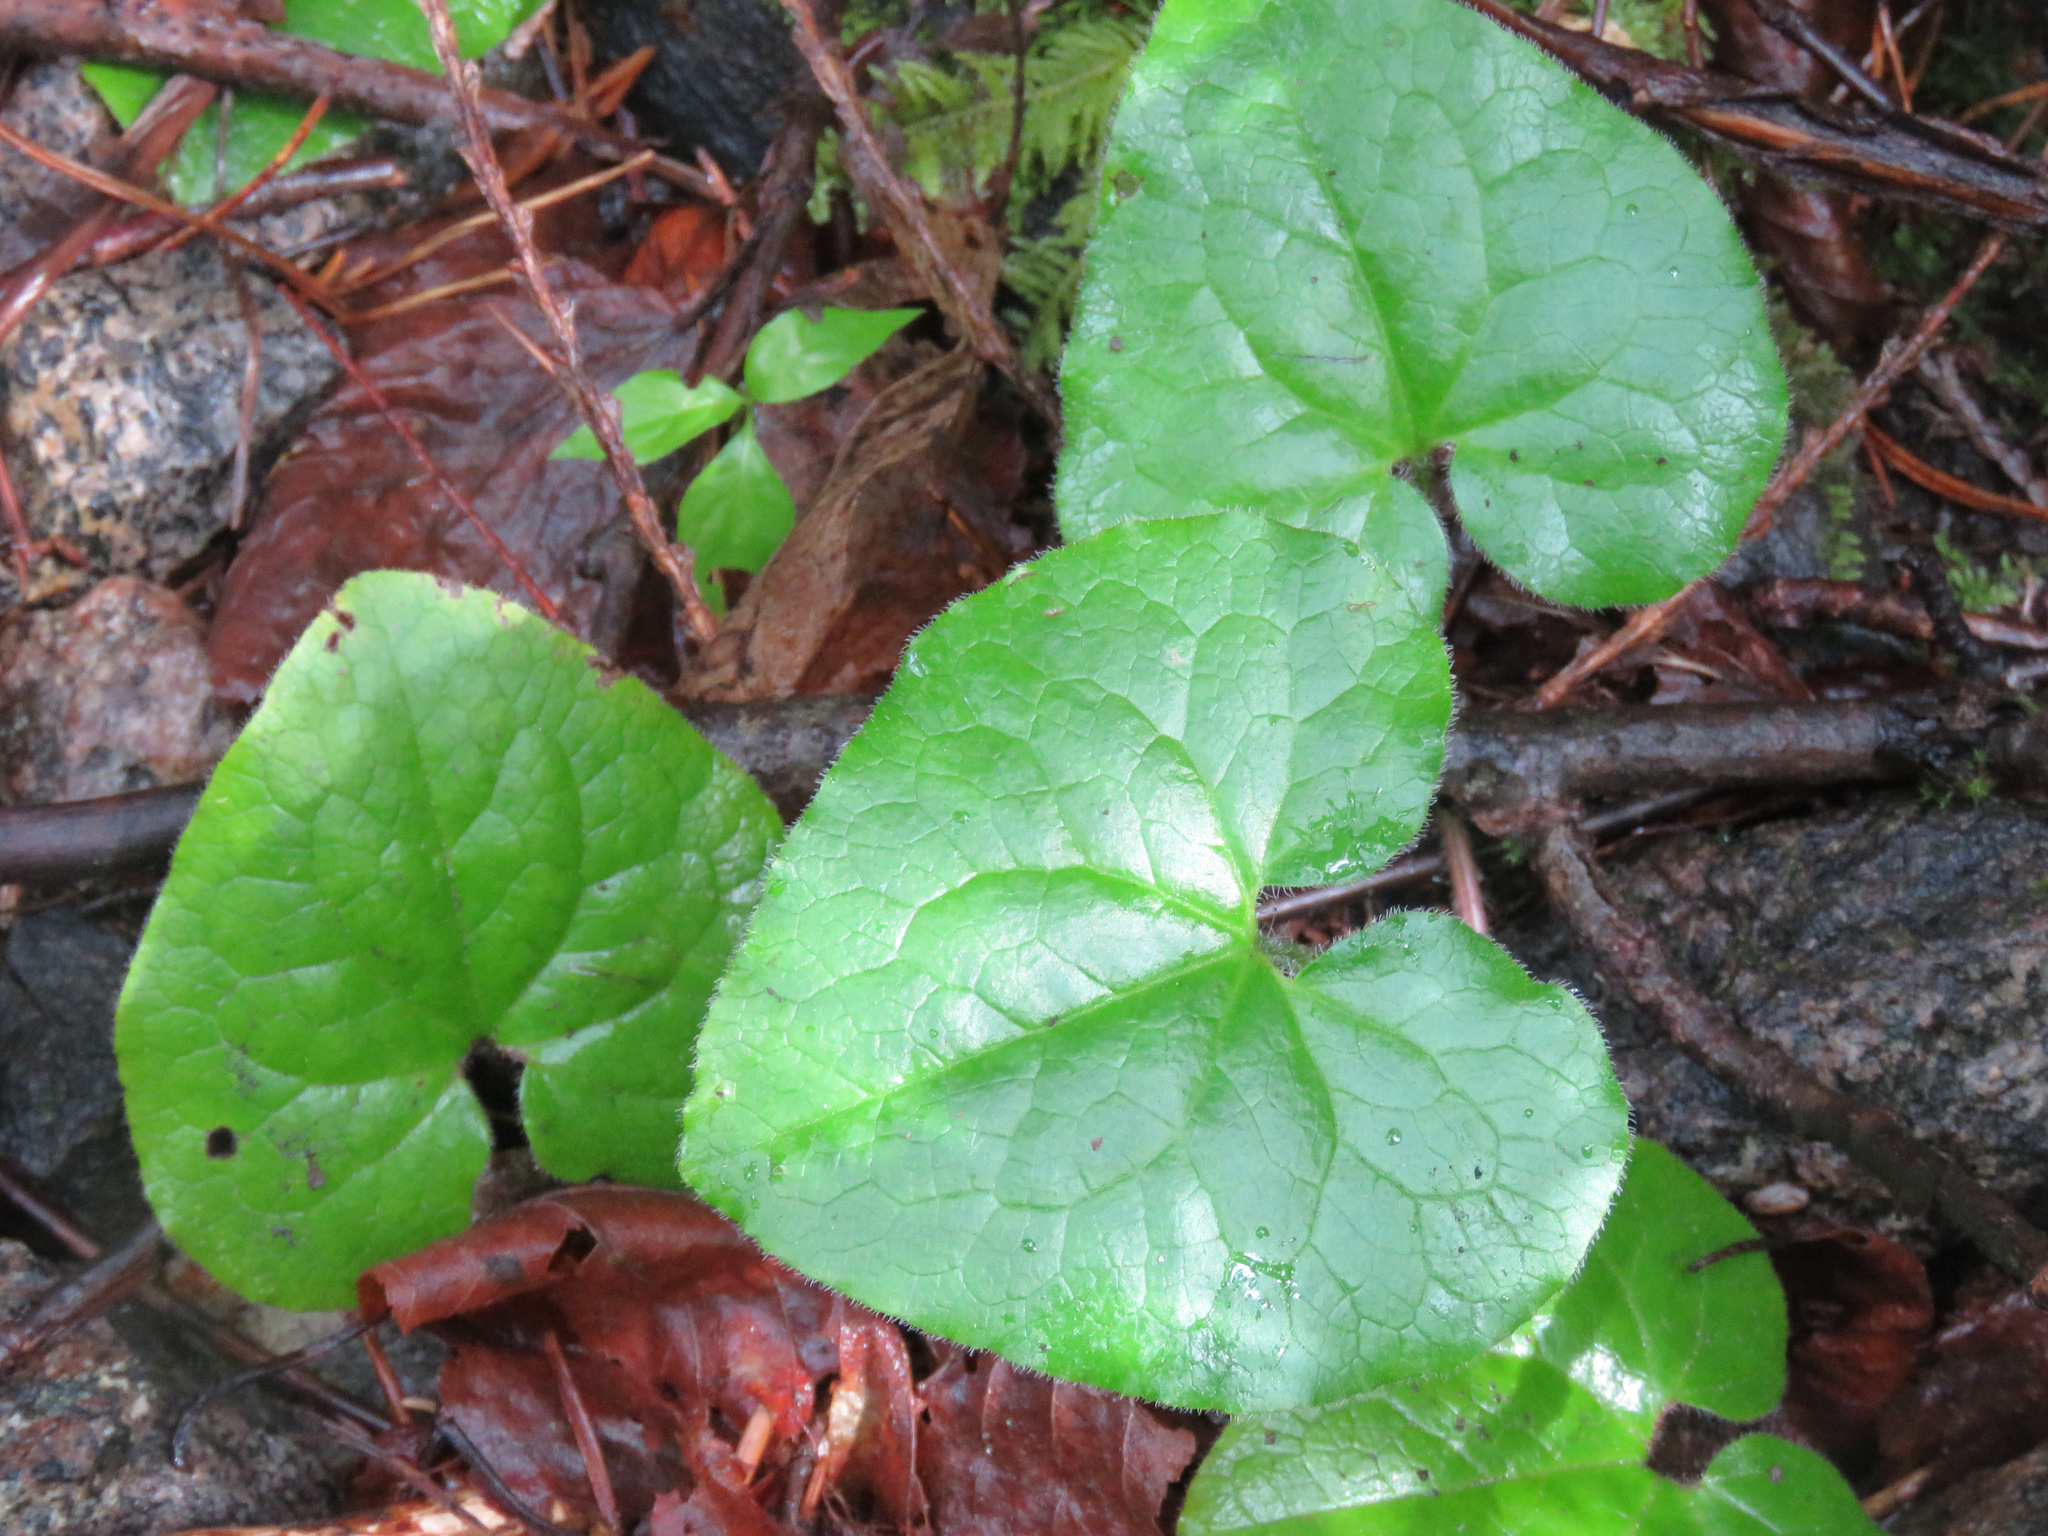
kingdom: Plantae
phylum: Tracheophyta
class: Magnoliopsida
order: Piperales
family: Aristolochiaceae
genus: Asarum
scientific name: Asarum caudatum
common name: Wild ginger
